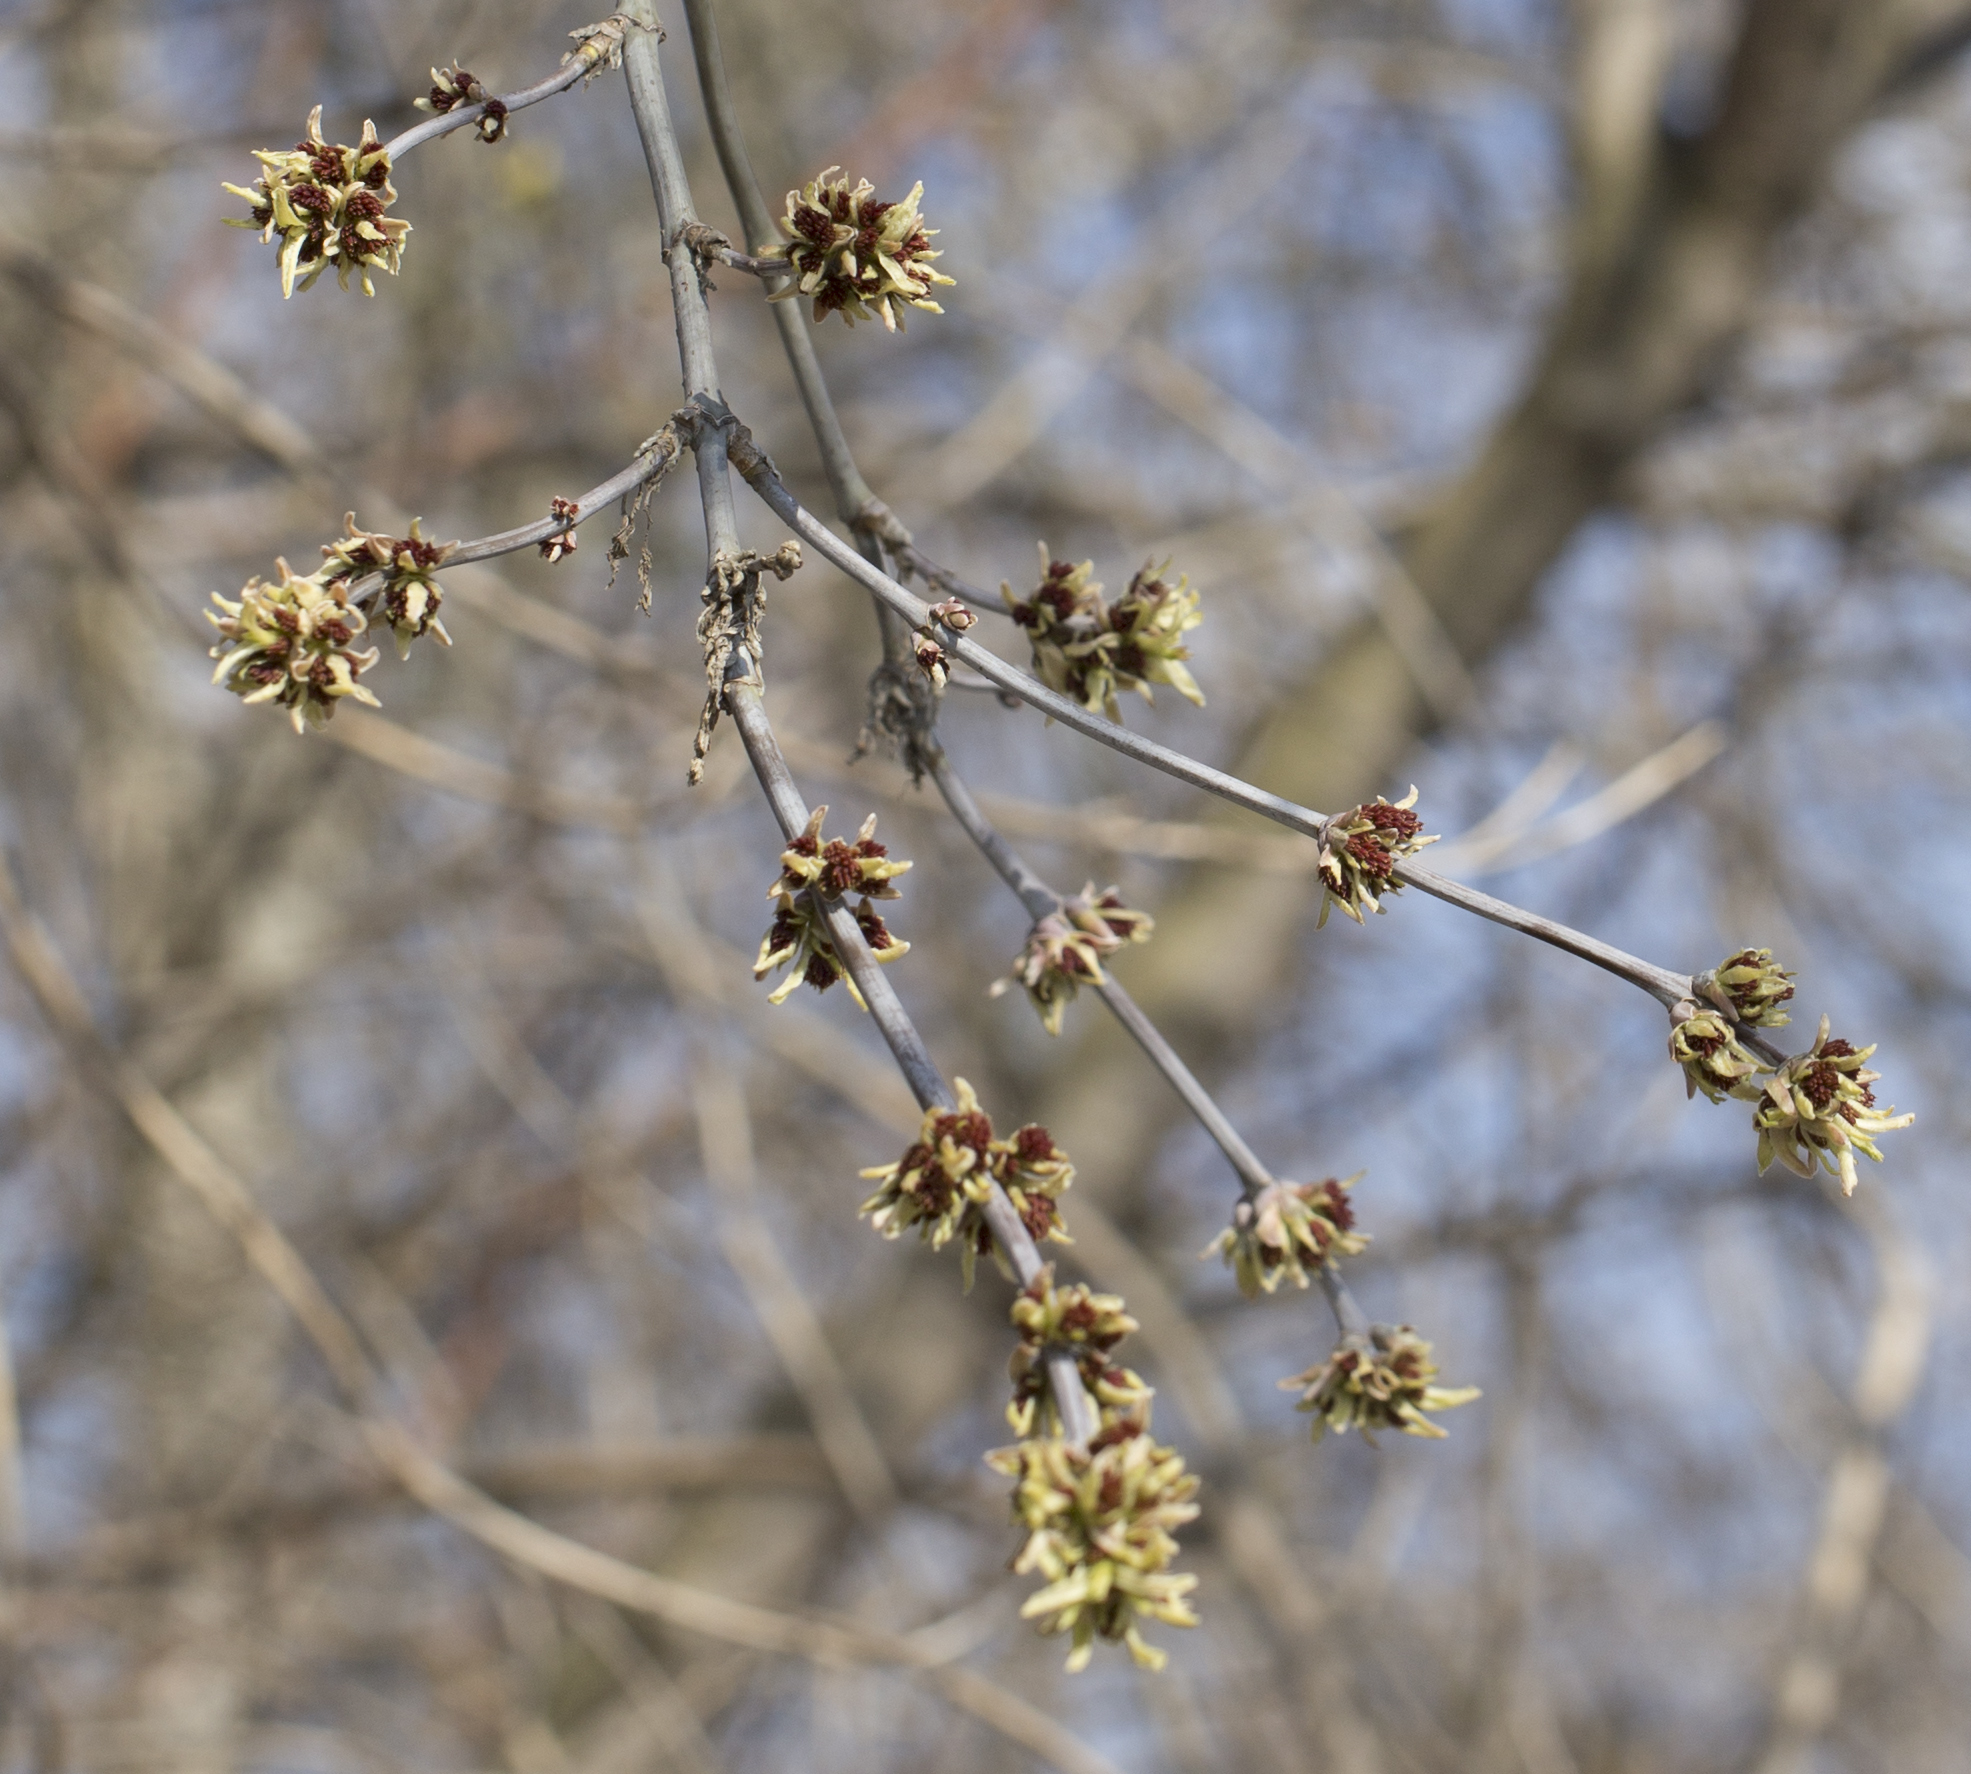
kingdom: Plantae
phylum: Tracheophyta
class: Magnoliopsida
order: Sapindales
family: Sapindaceae
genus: Acer
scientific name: Acer negundo
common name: Ashleaf maple
